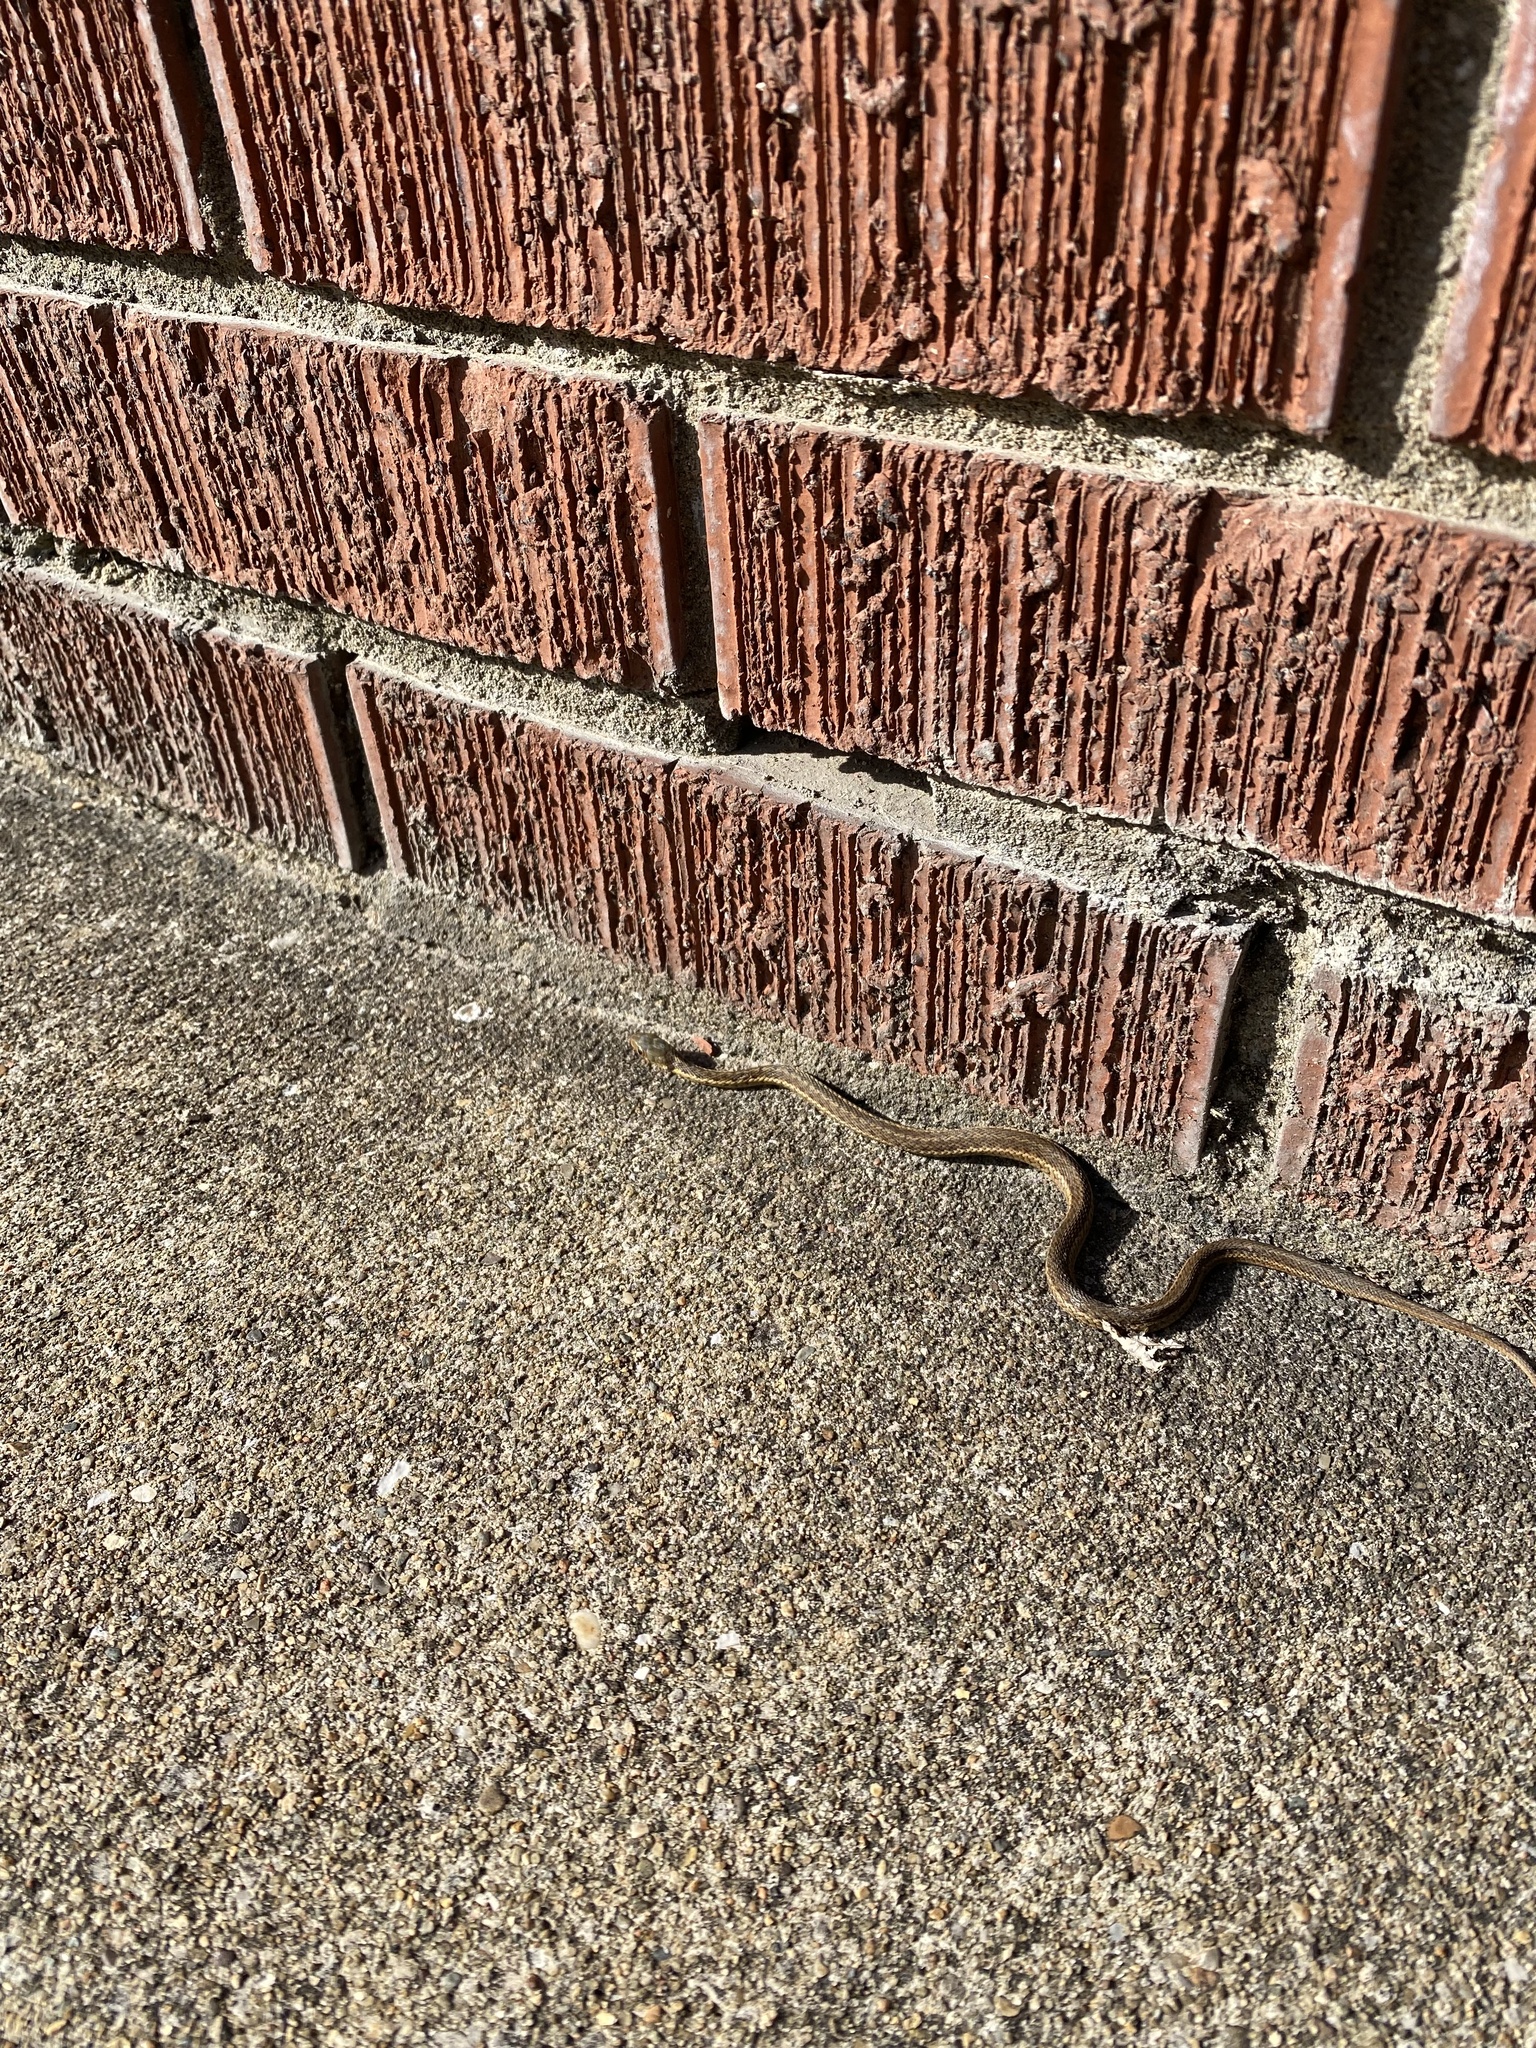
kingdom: Animalia
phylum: Chordata
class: Squamata
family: Colubridae
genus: Thamnophis
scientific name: Thamnophis sirtalis
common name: Common garter snake
